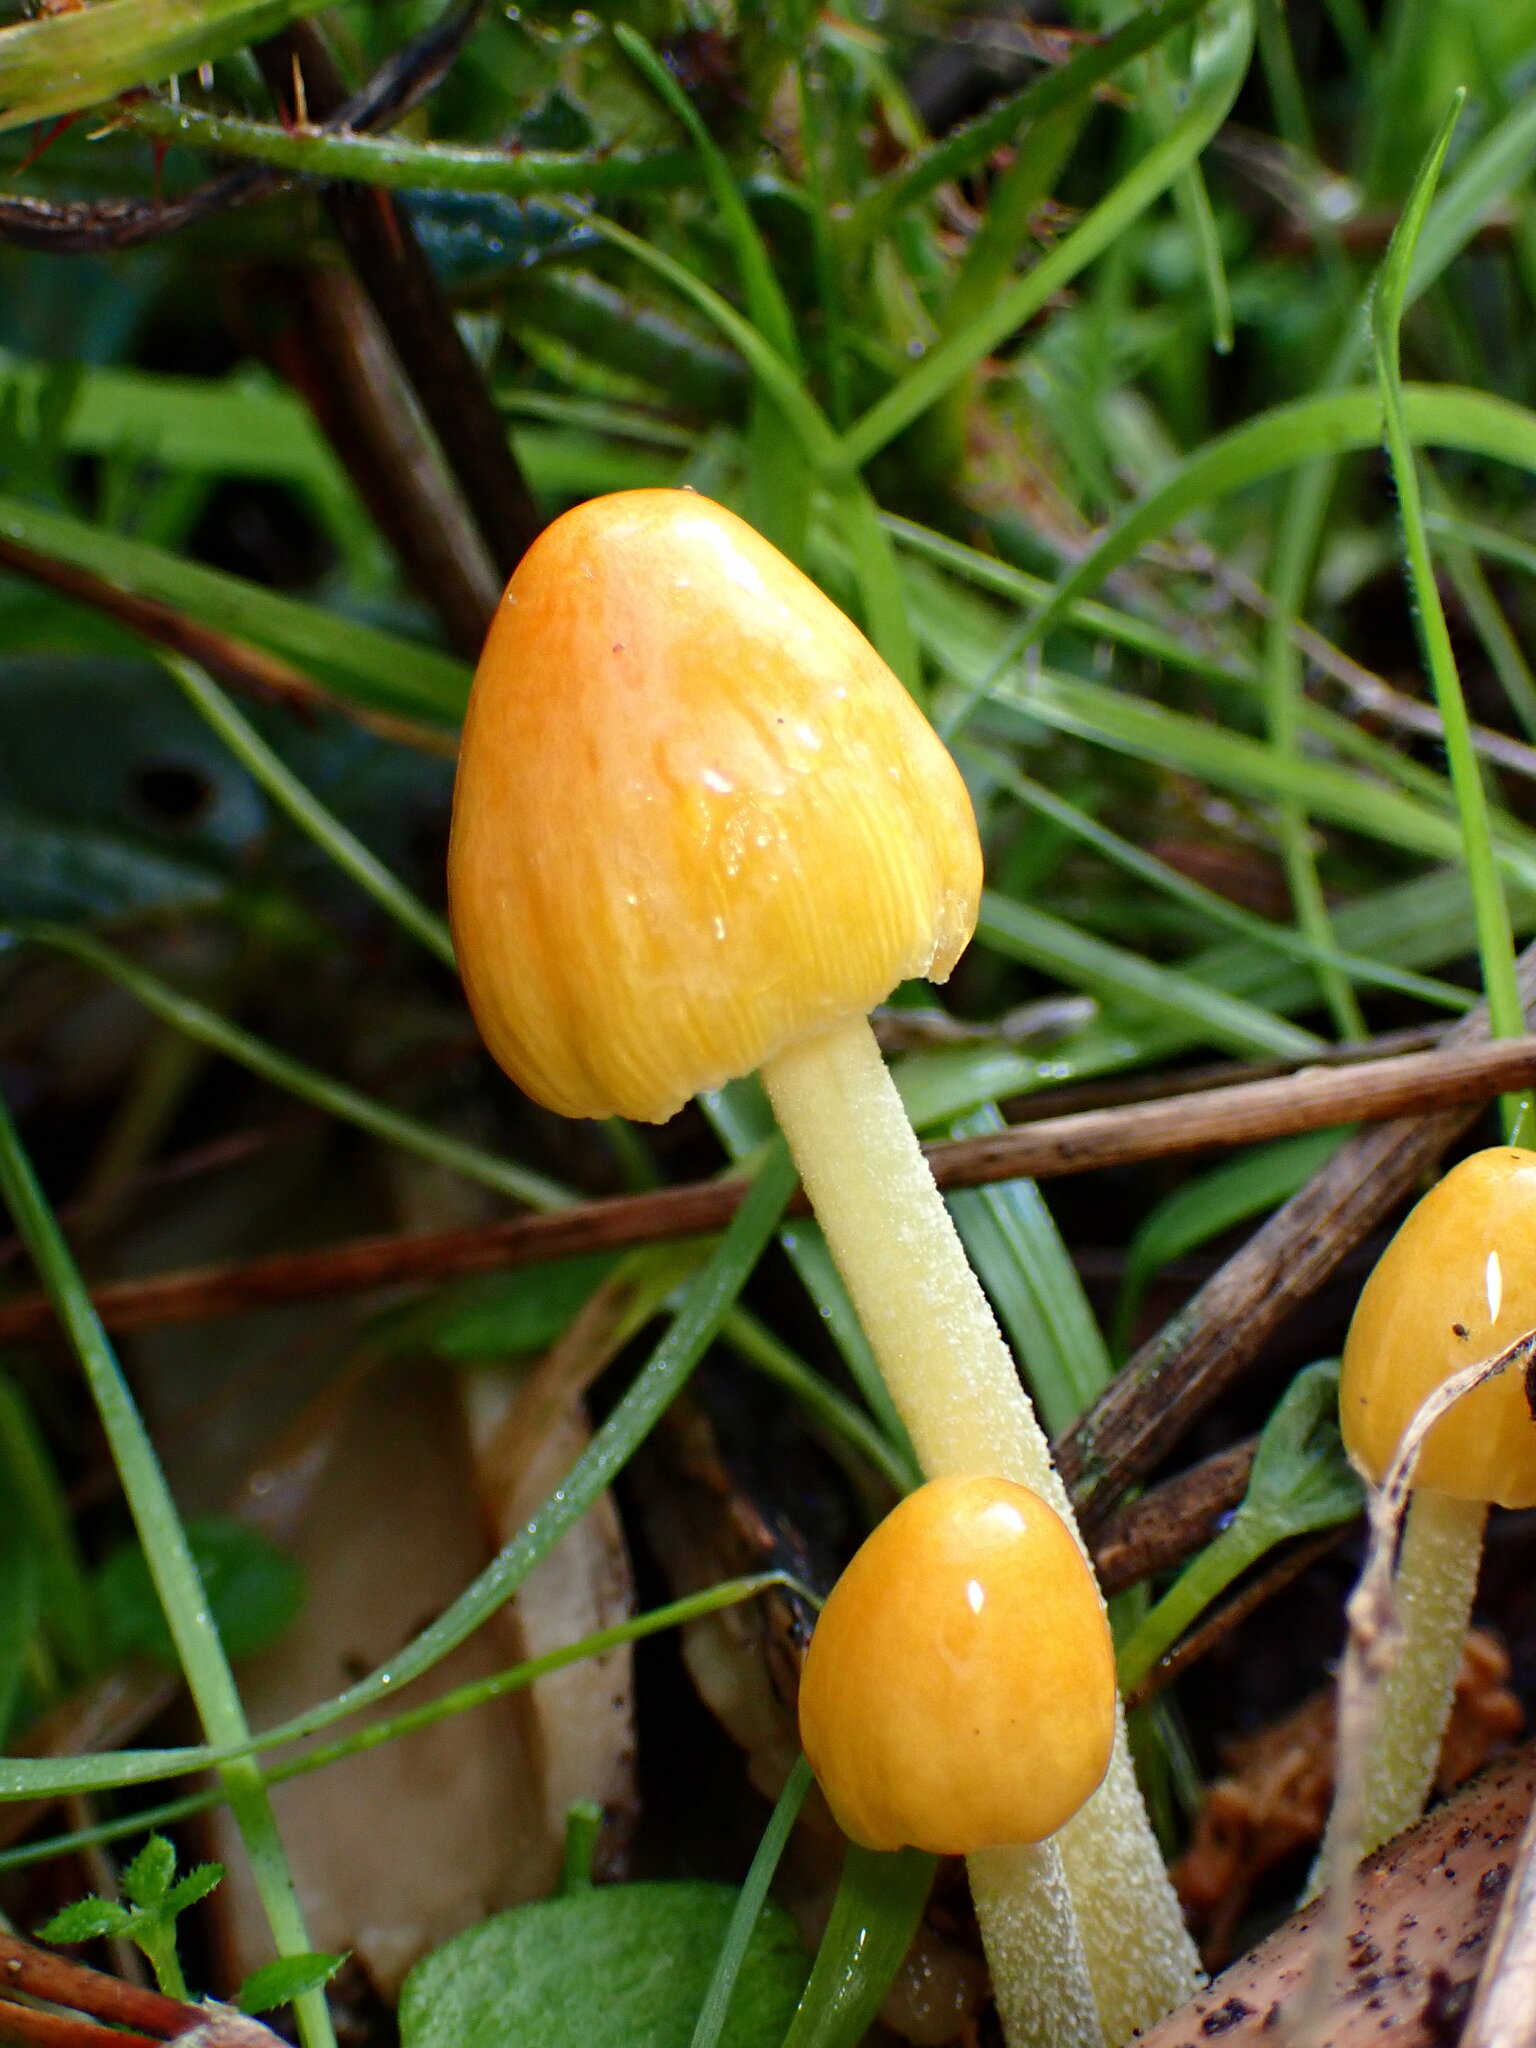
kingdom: Fungi
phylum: Basidiomycota
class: Agaricomycetes
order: Agaricales
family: Bolbitiaceae
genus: Bolbitius
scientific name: Bolbitius titubans
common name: Yellow fieldcap
